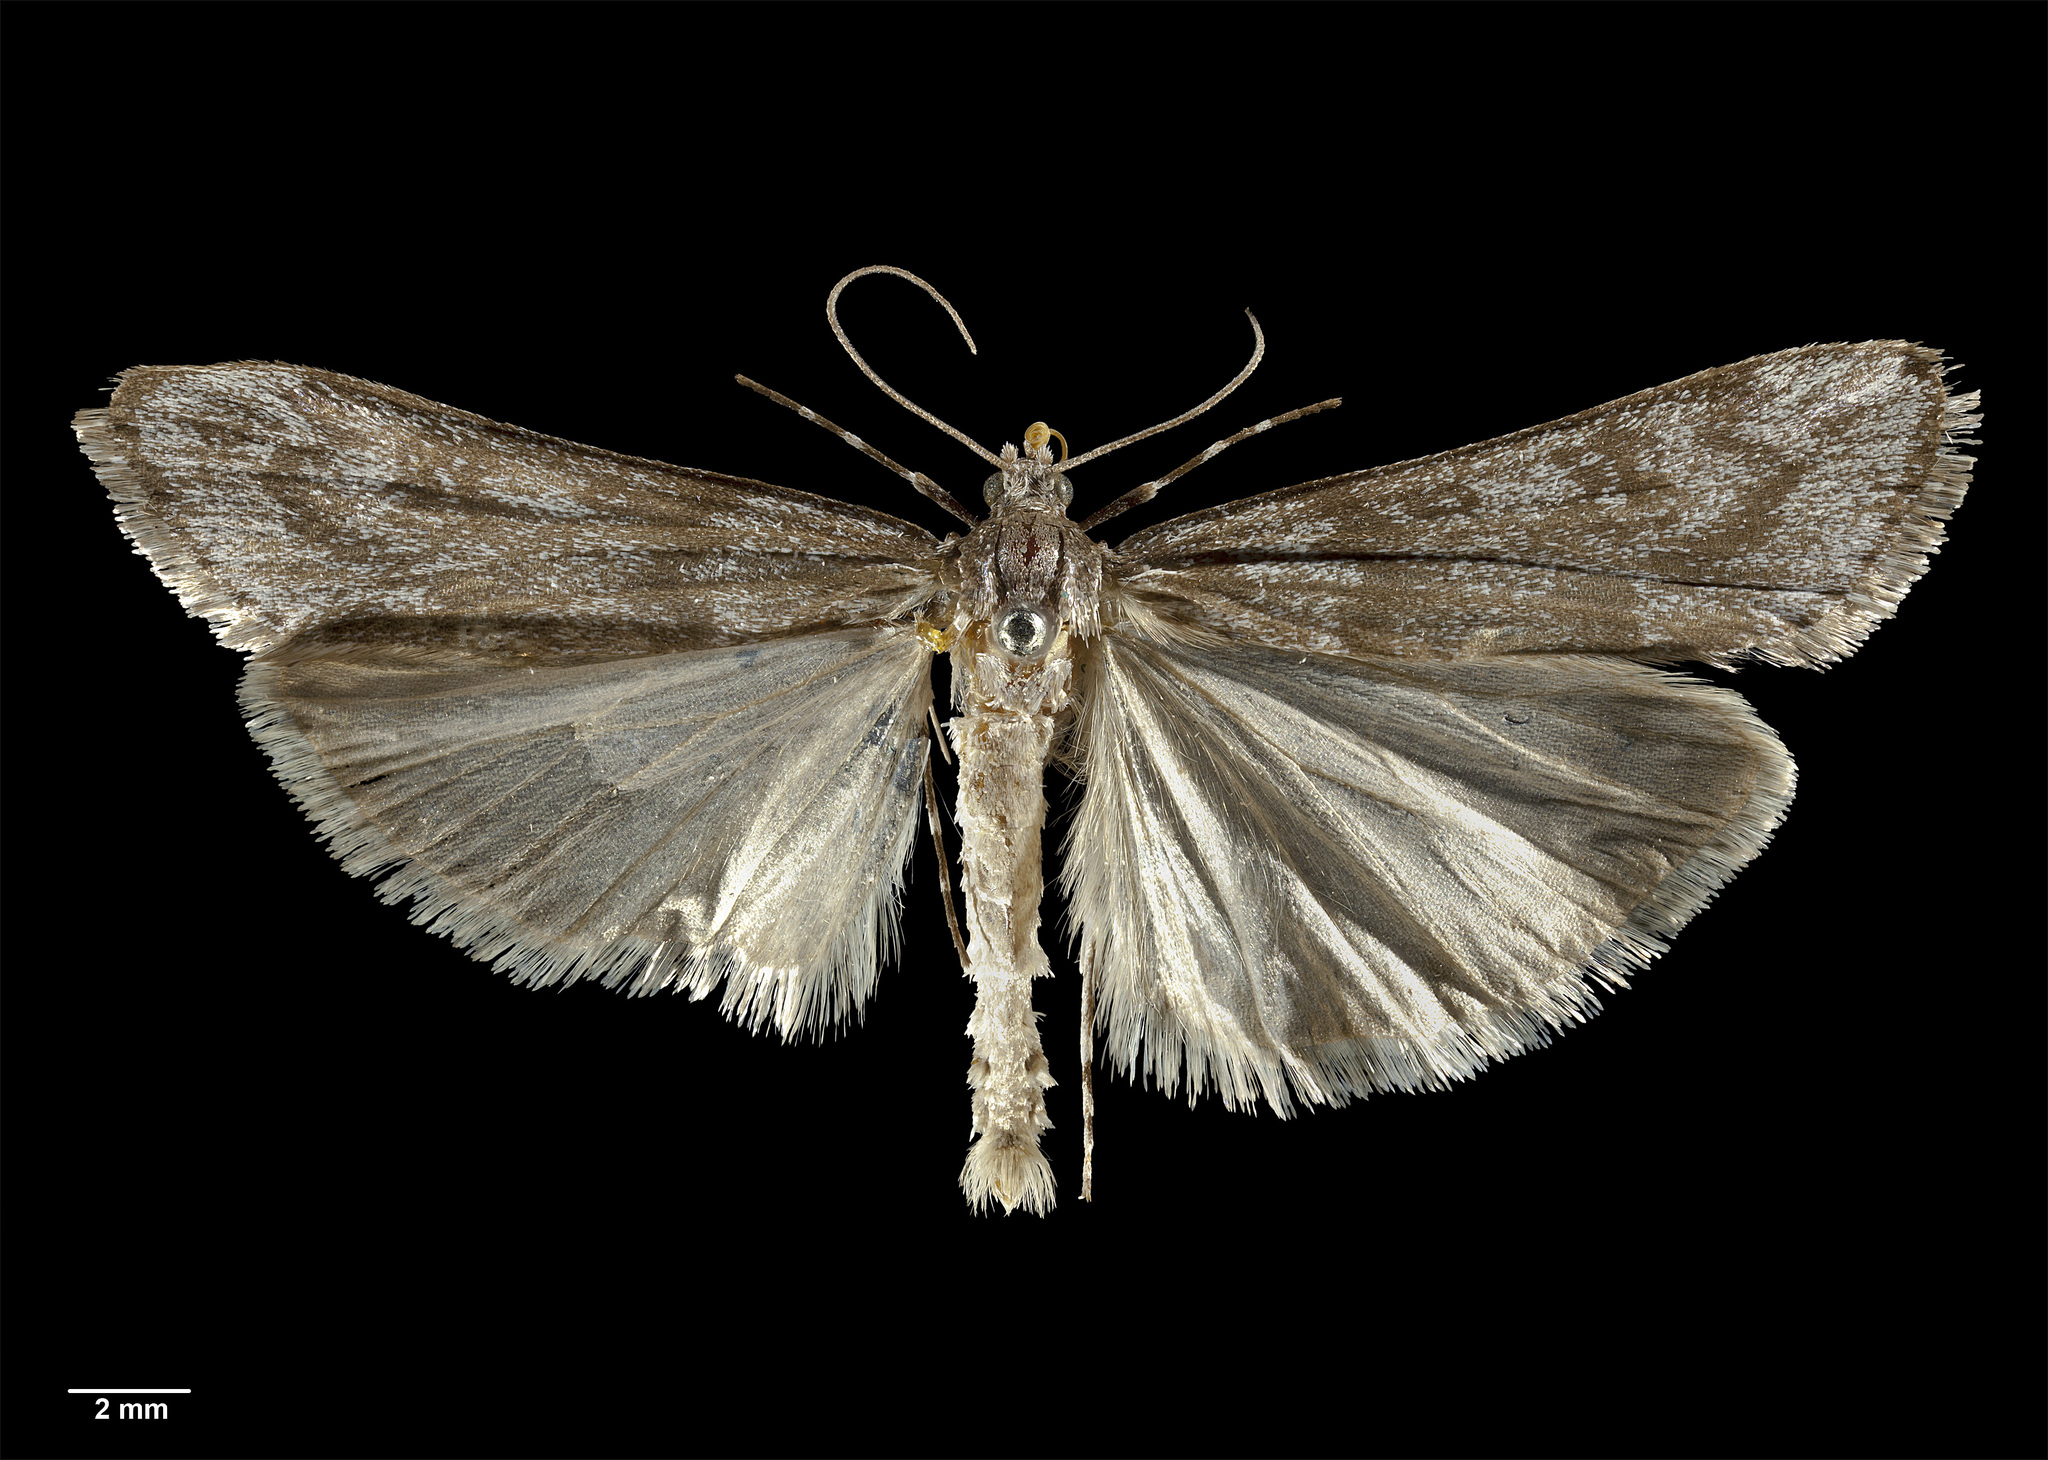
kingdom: Animalia
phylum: Arthropoda
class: Insecta
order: Lepidoptera
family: Crambidae
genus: Scoparia
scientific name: Scoparia contexta
